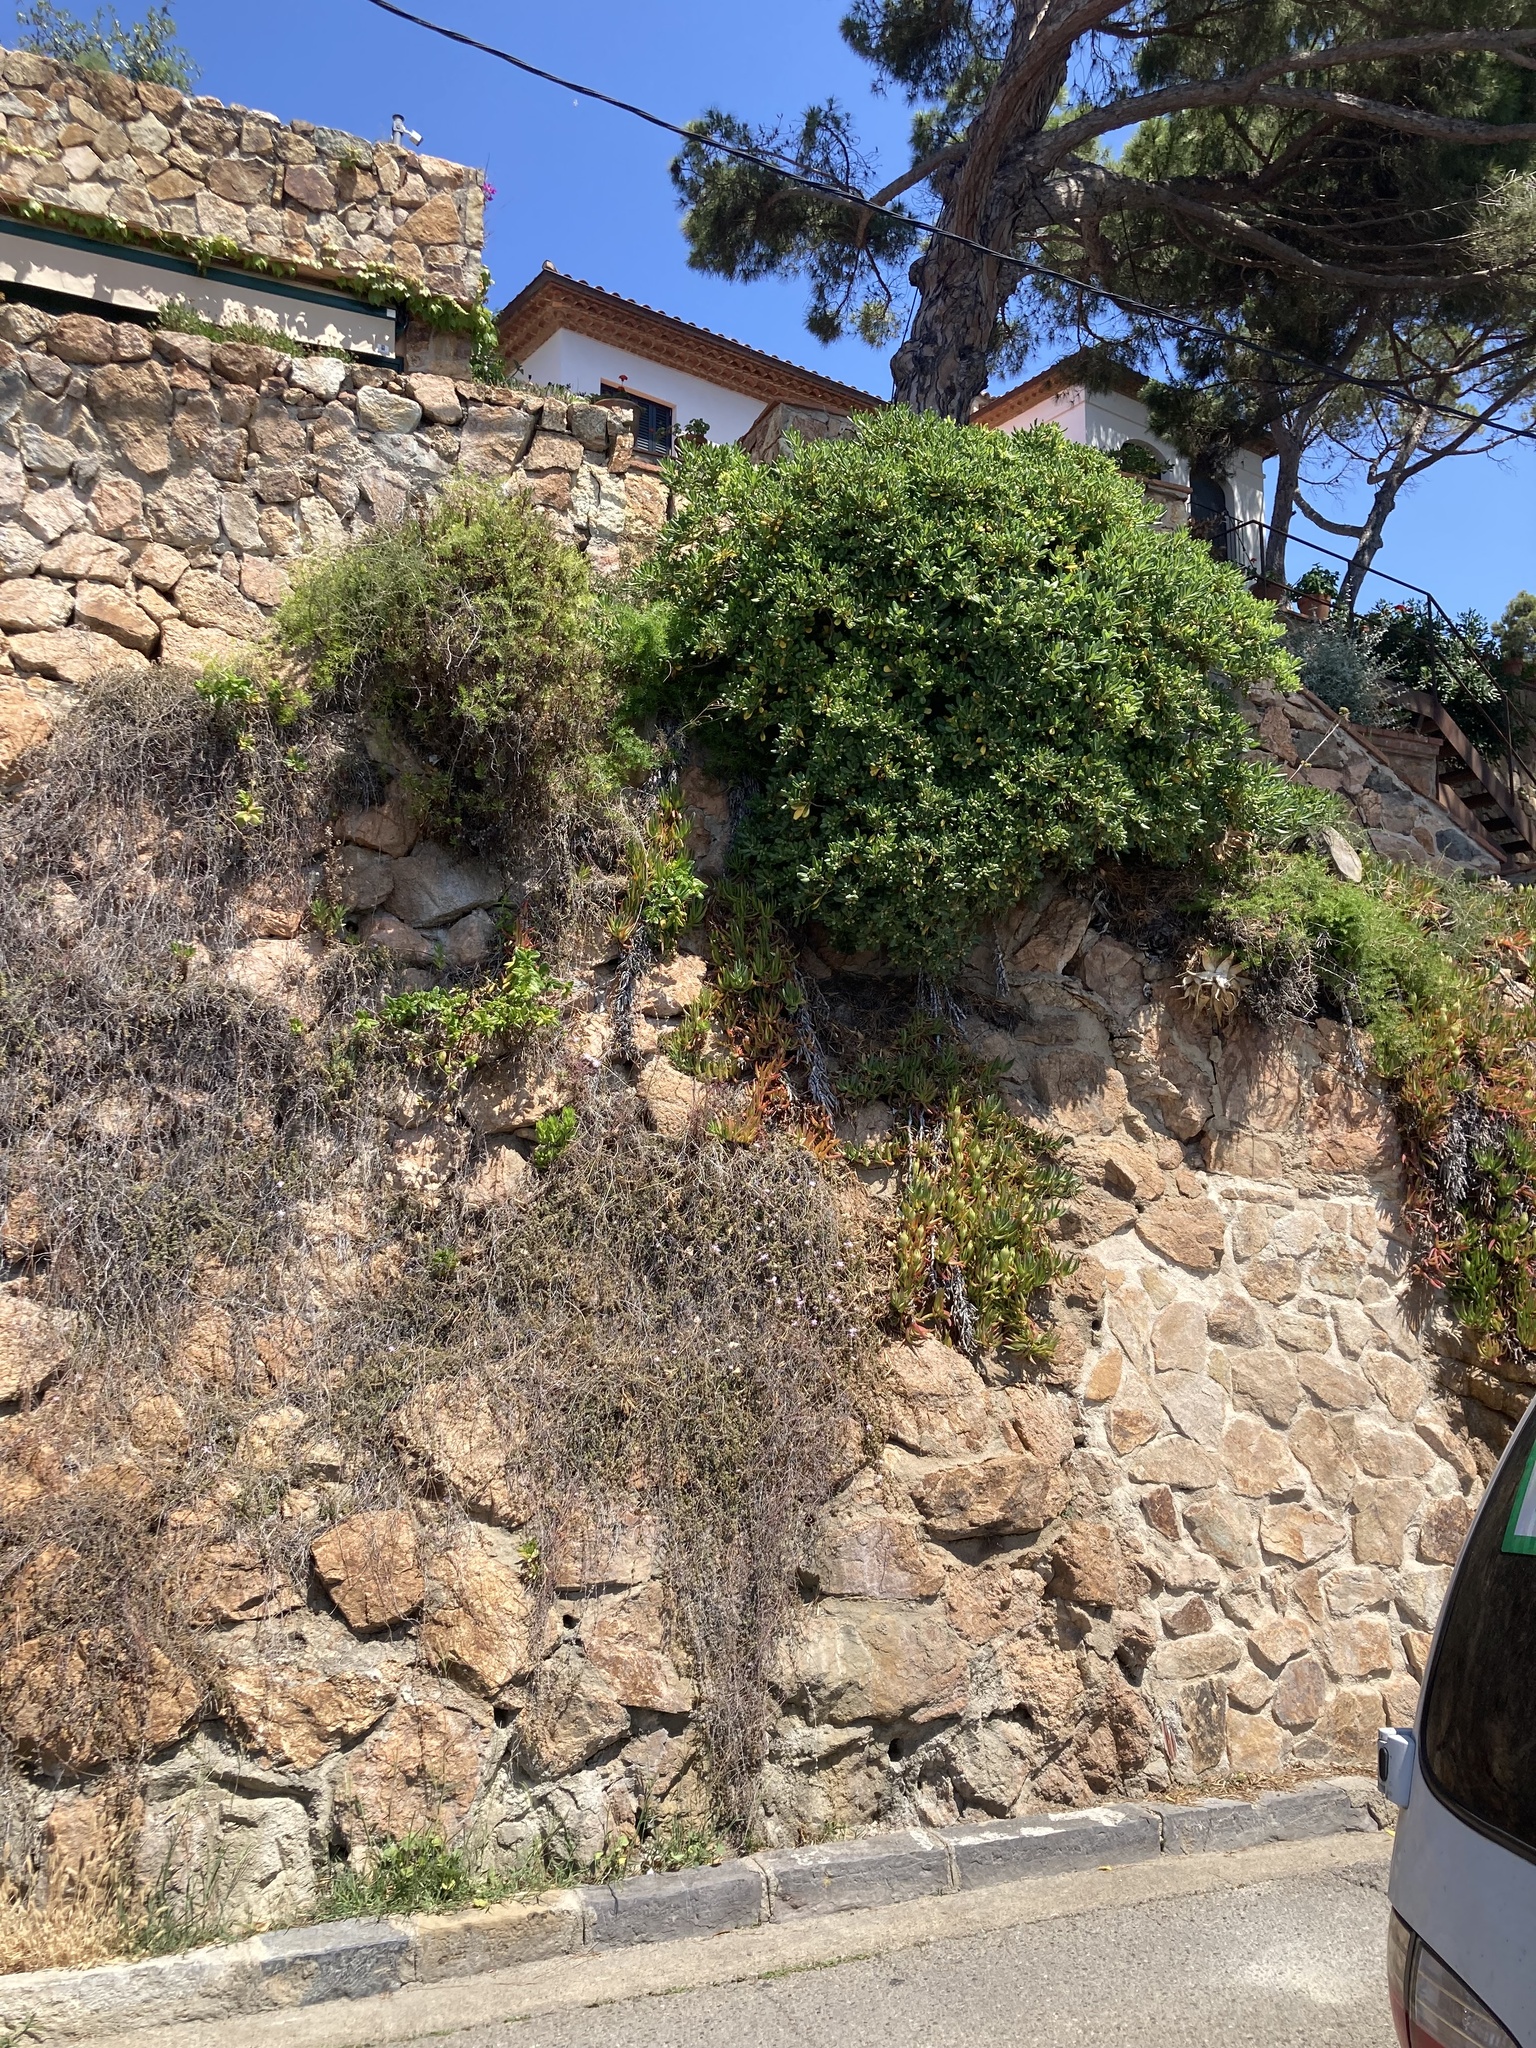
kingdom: Plantae
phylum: Tracheophyta
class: Magnoliopsida
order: Asterales
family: Asteraceae
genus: Dimorphotheca
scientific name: Dimorphotheca ecklonis
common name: Vanstaden's river daisy
